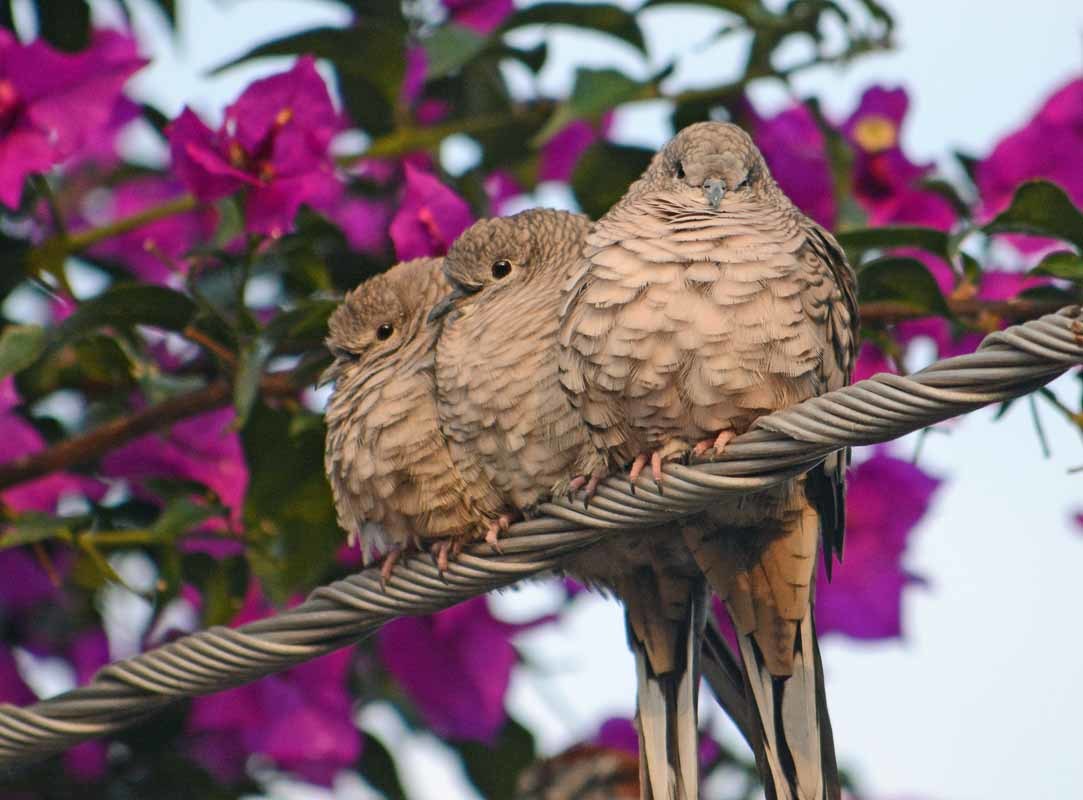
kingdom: Animalia
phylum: Chordata
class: Aves
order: Columbiformes
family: Columbidae
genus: Columbina
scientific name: Columbina inca
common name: Inca dove
